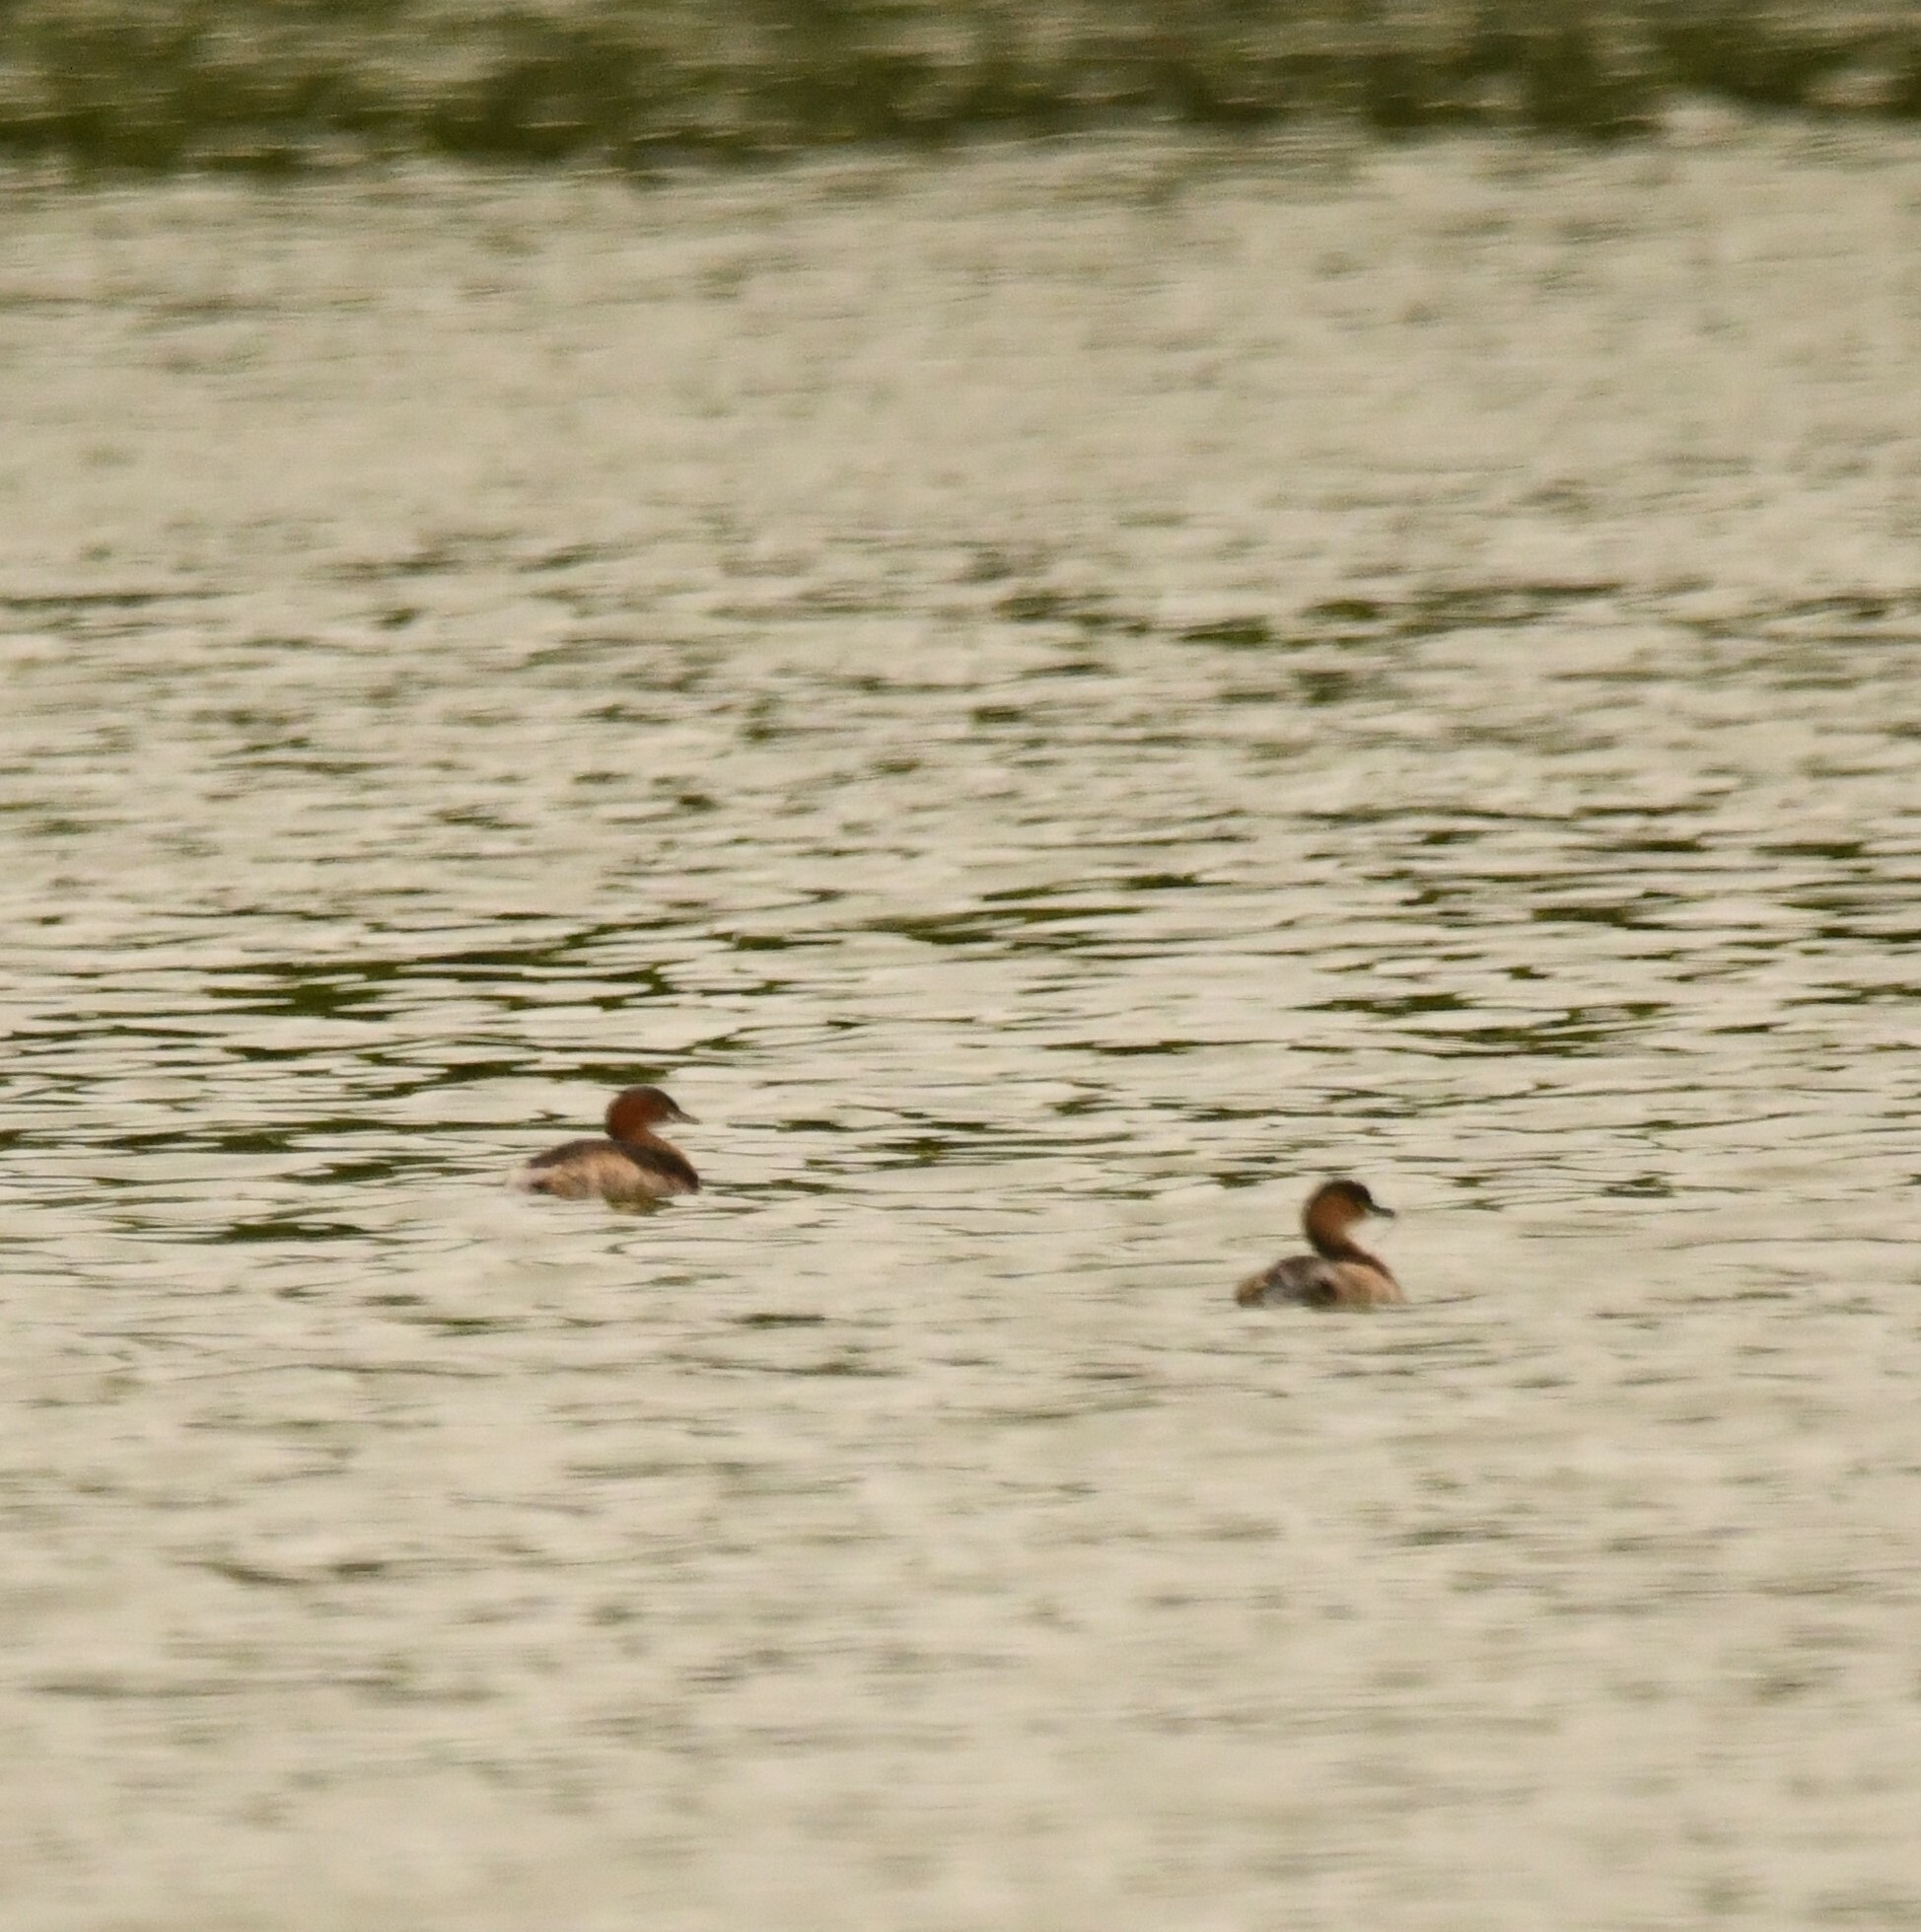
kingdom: Animalia
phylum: Chordata
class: Aves
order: Podicipediformes
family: Podicipedidae
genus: Tachybaptus
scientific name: Tachybaptus ruficollis
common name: Little grebe
